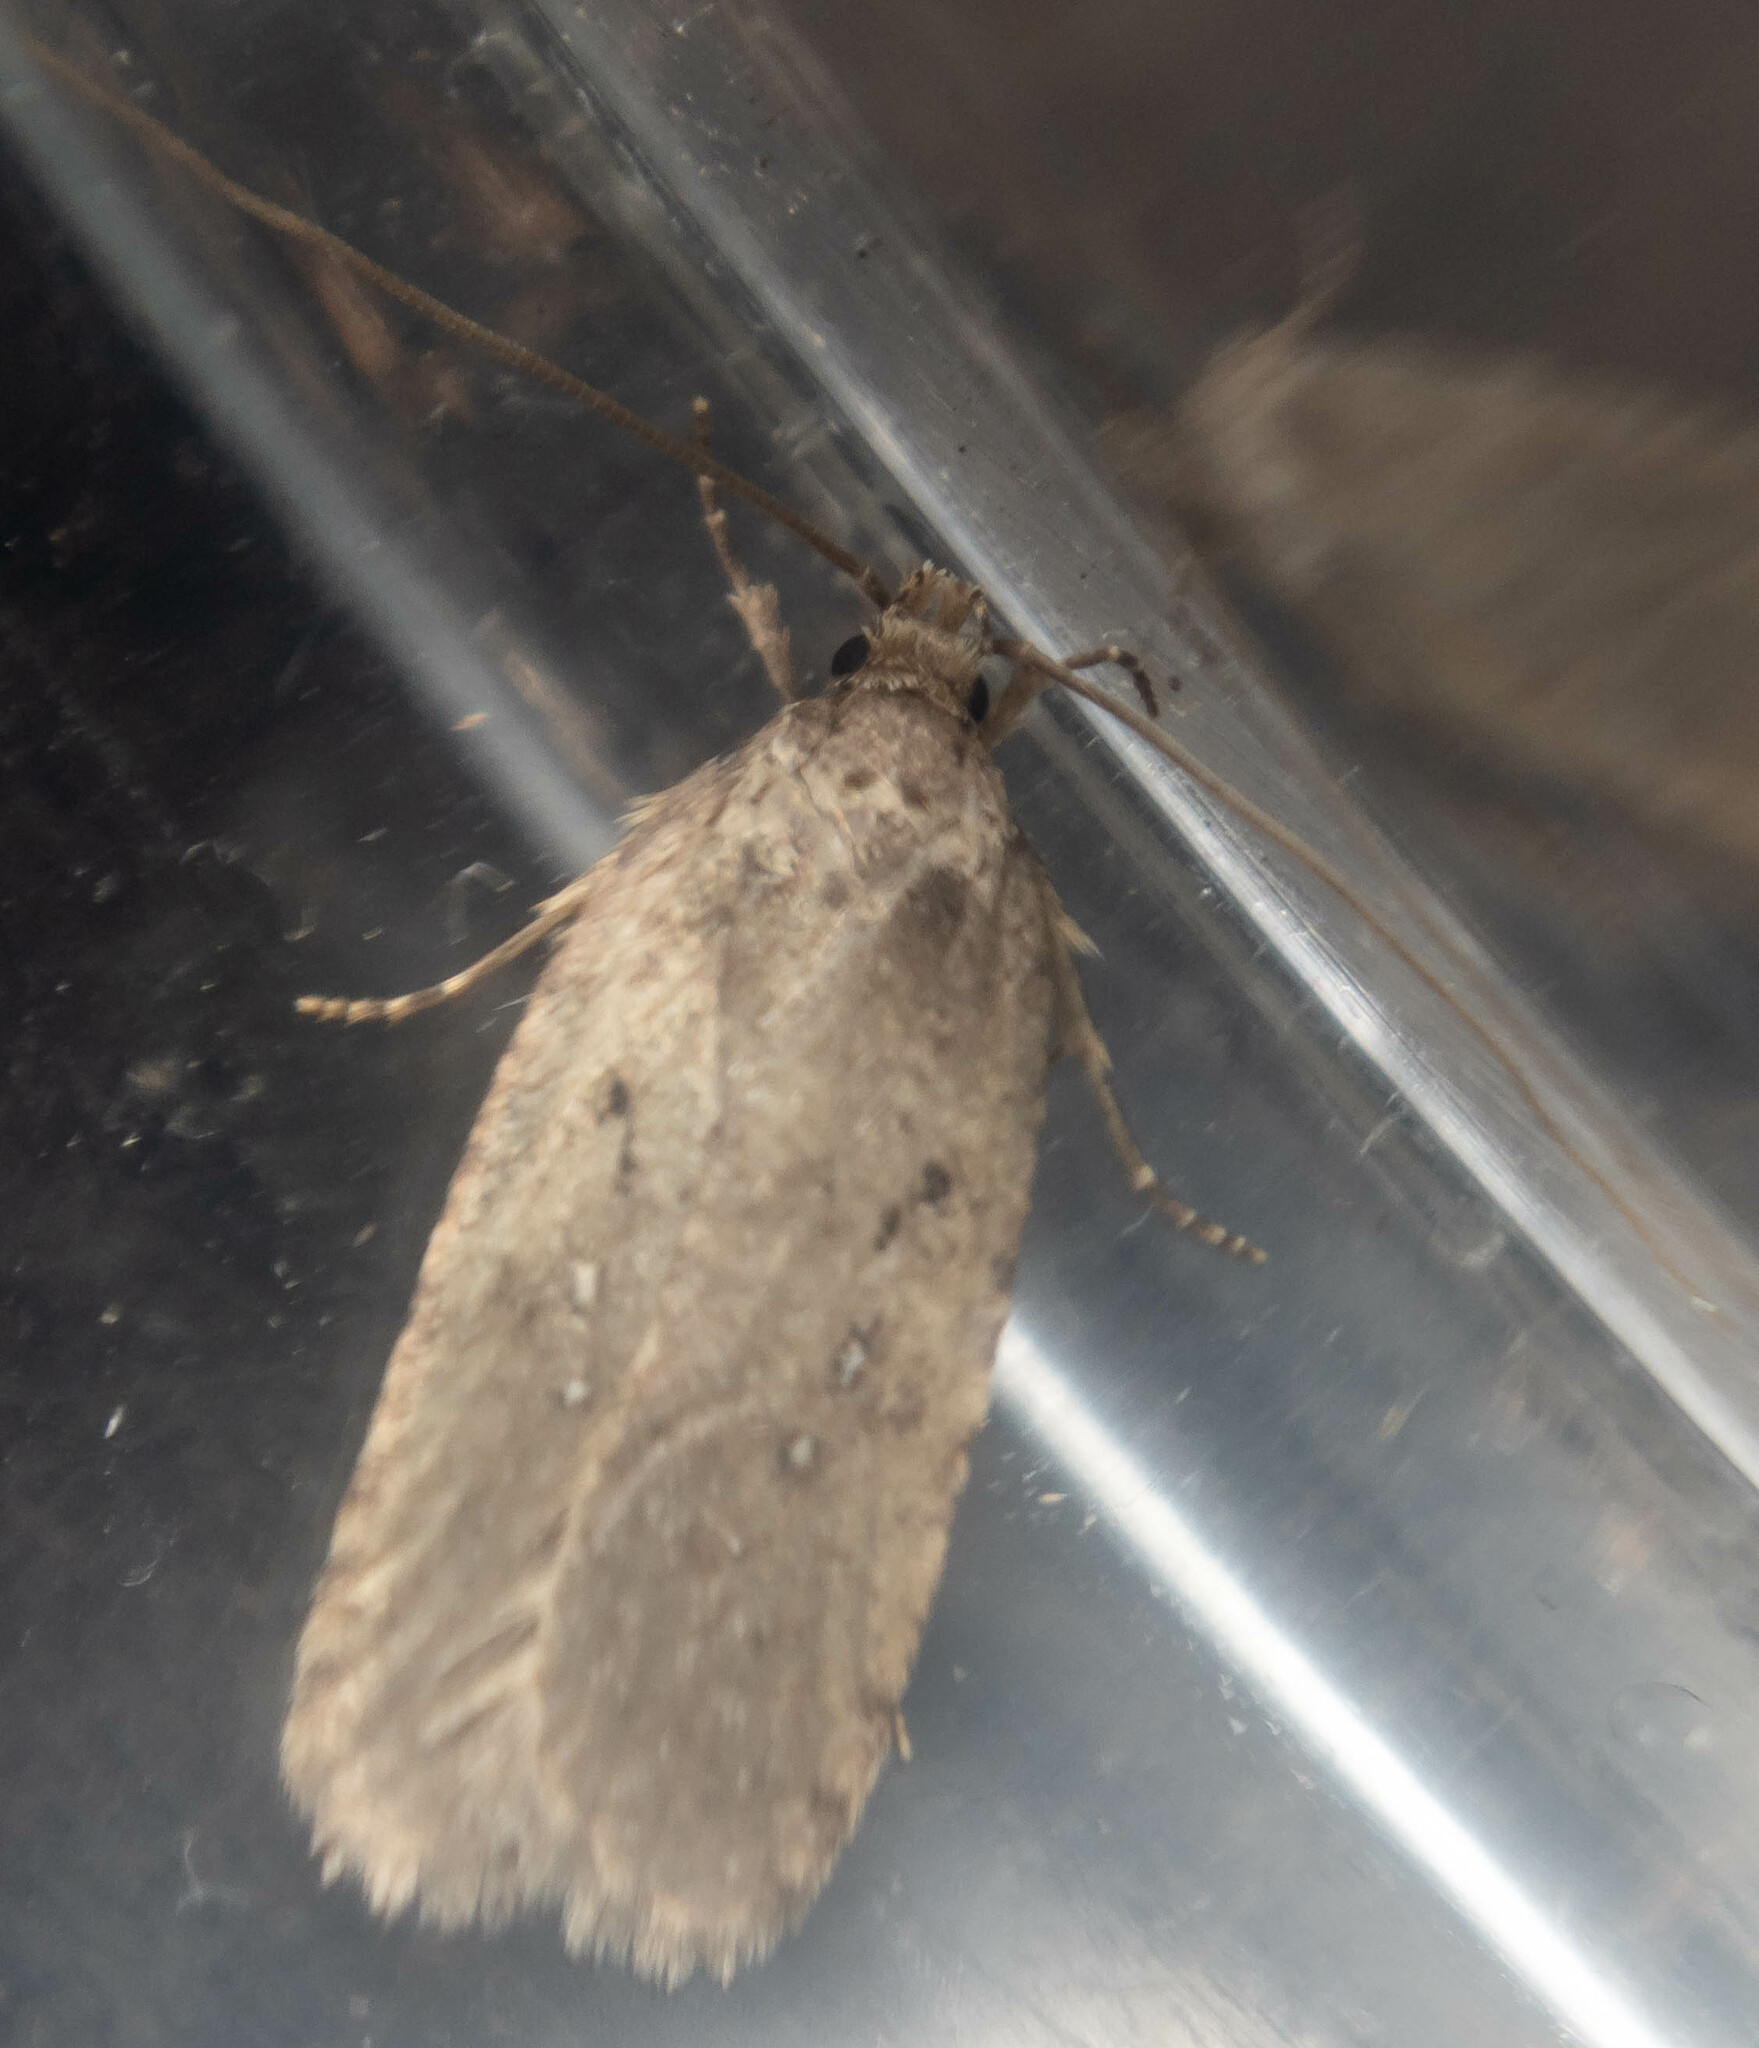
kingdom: Animalia
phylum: Arthropoda
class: Insecta
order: Lepidoptera
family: Depressariidae
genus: Agonopterix
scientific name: Agonopterix heracliana
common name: Common flat-body
